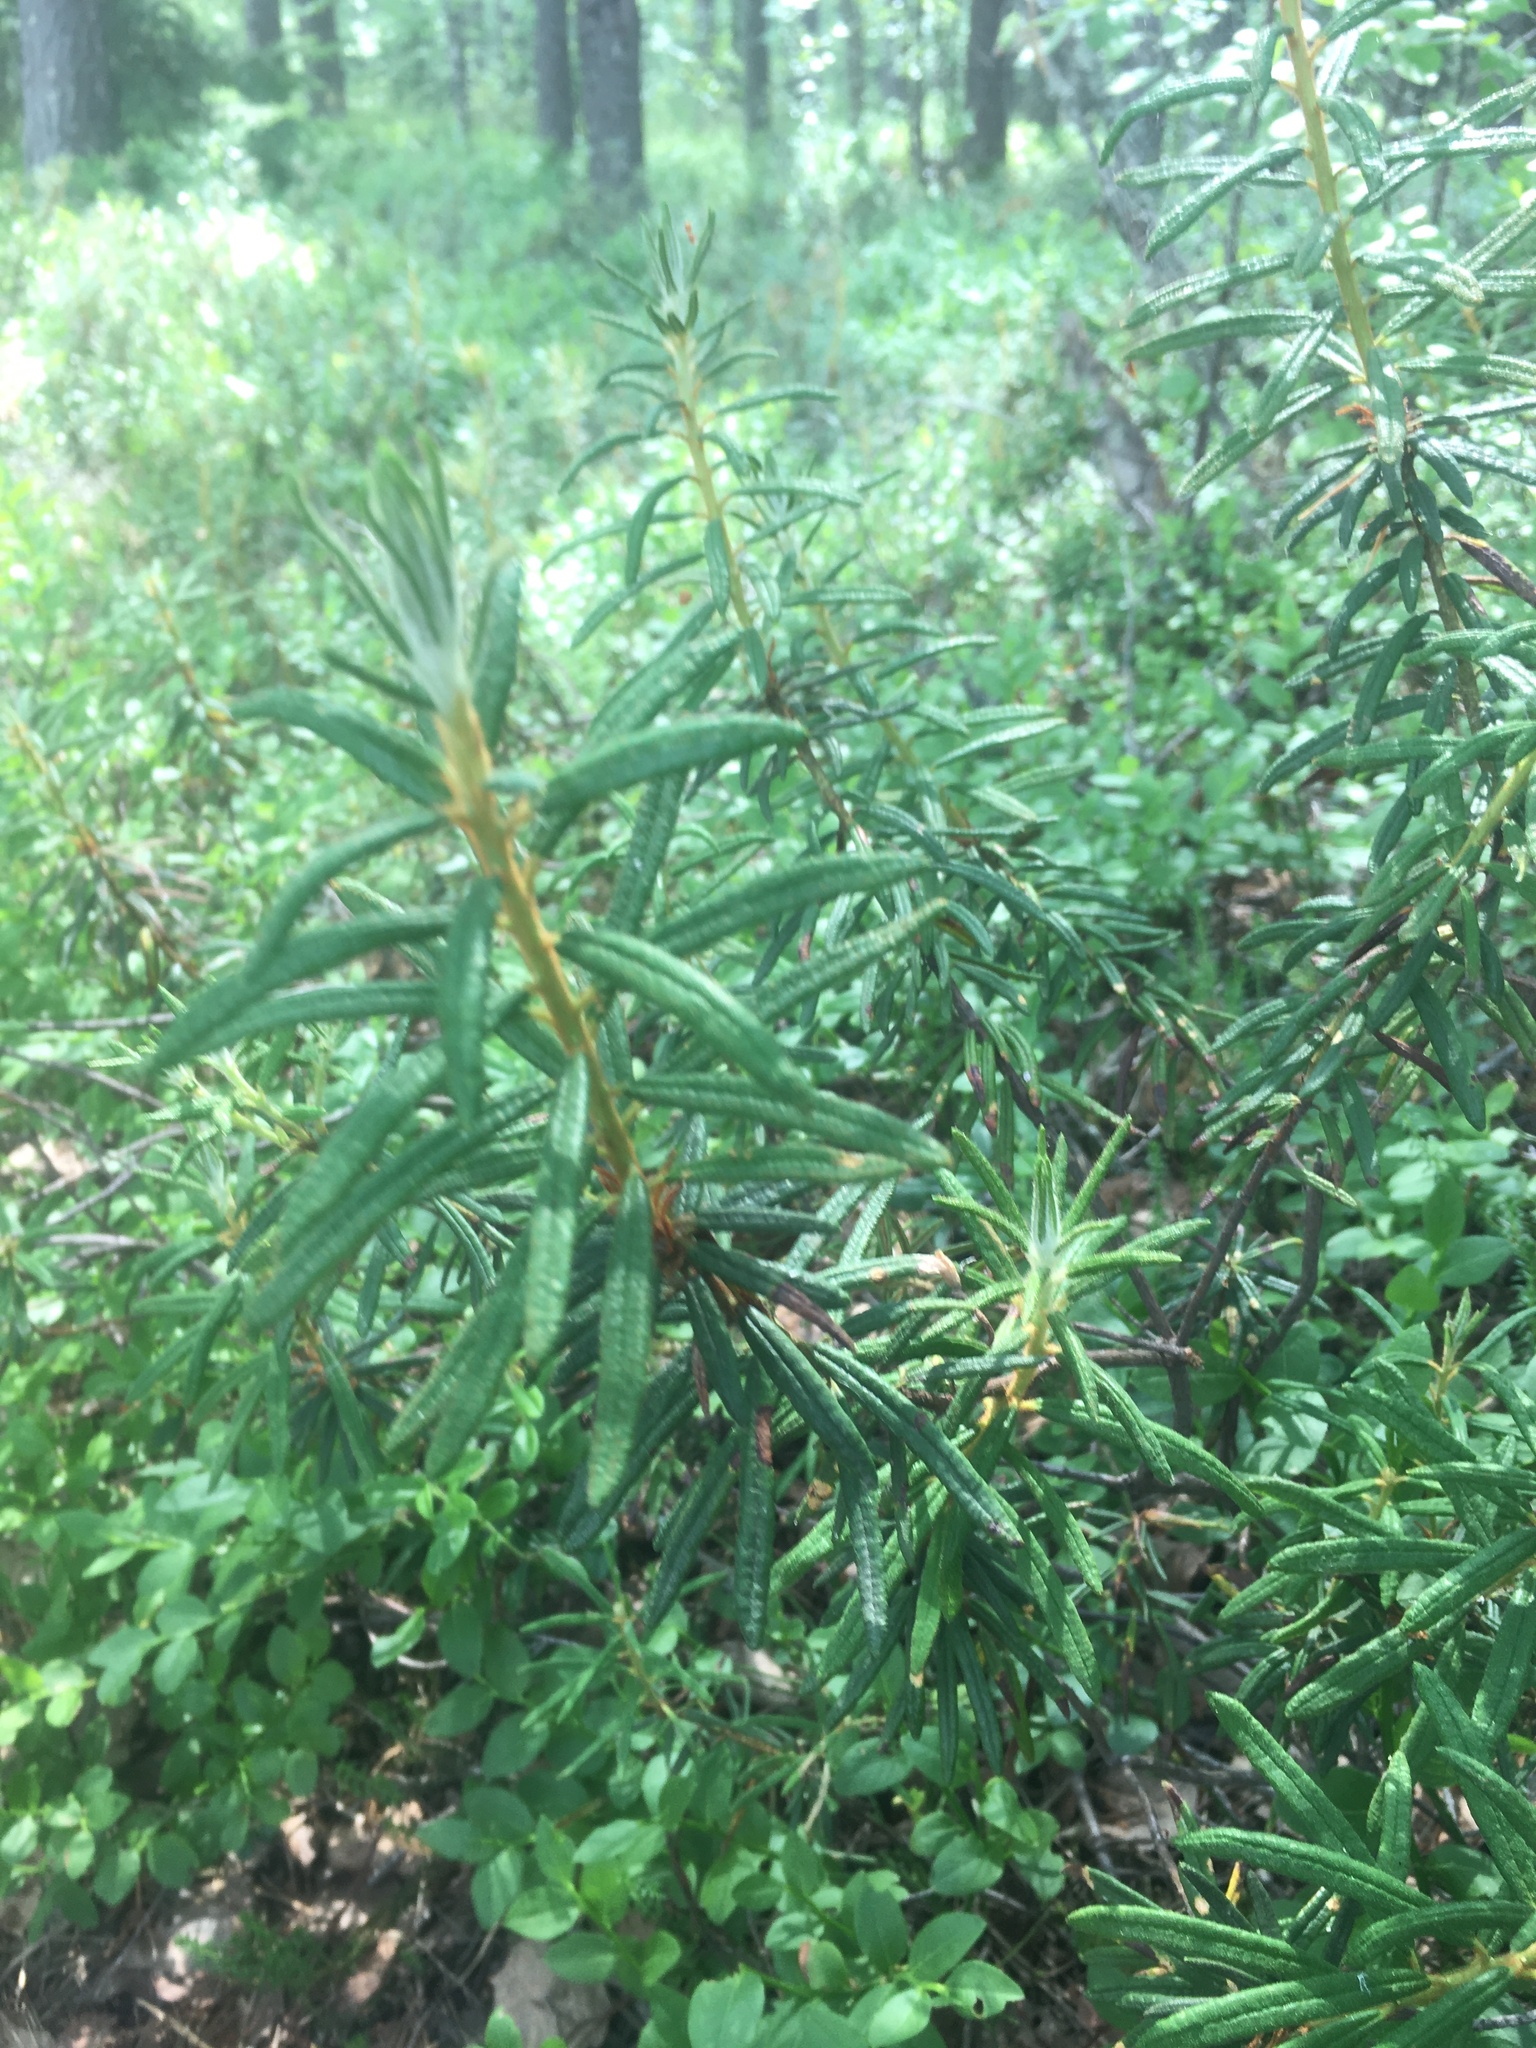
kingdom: Plantae
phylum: Tracheophyta
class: Magnoliopsida
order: Ericales
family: Ericaceae
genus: Rhododendron
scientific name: Rhododendron tomentosum
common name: Marsh labrador tea
